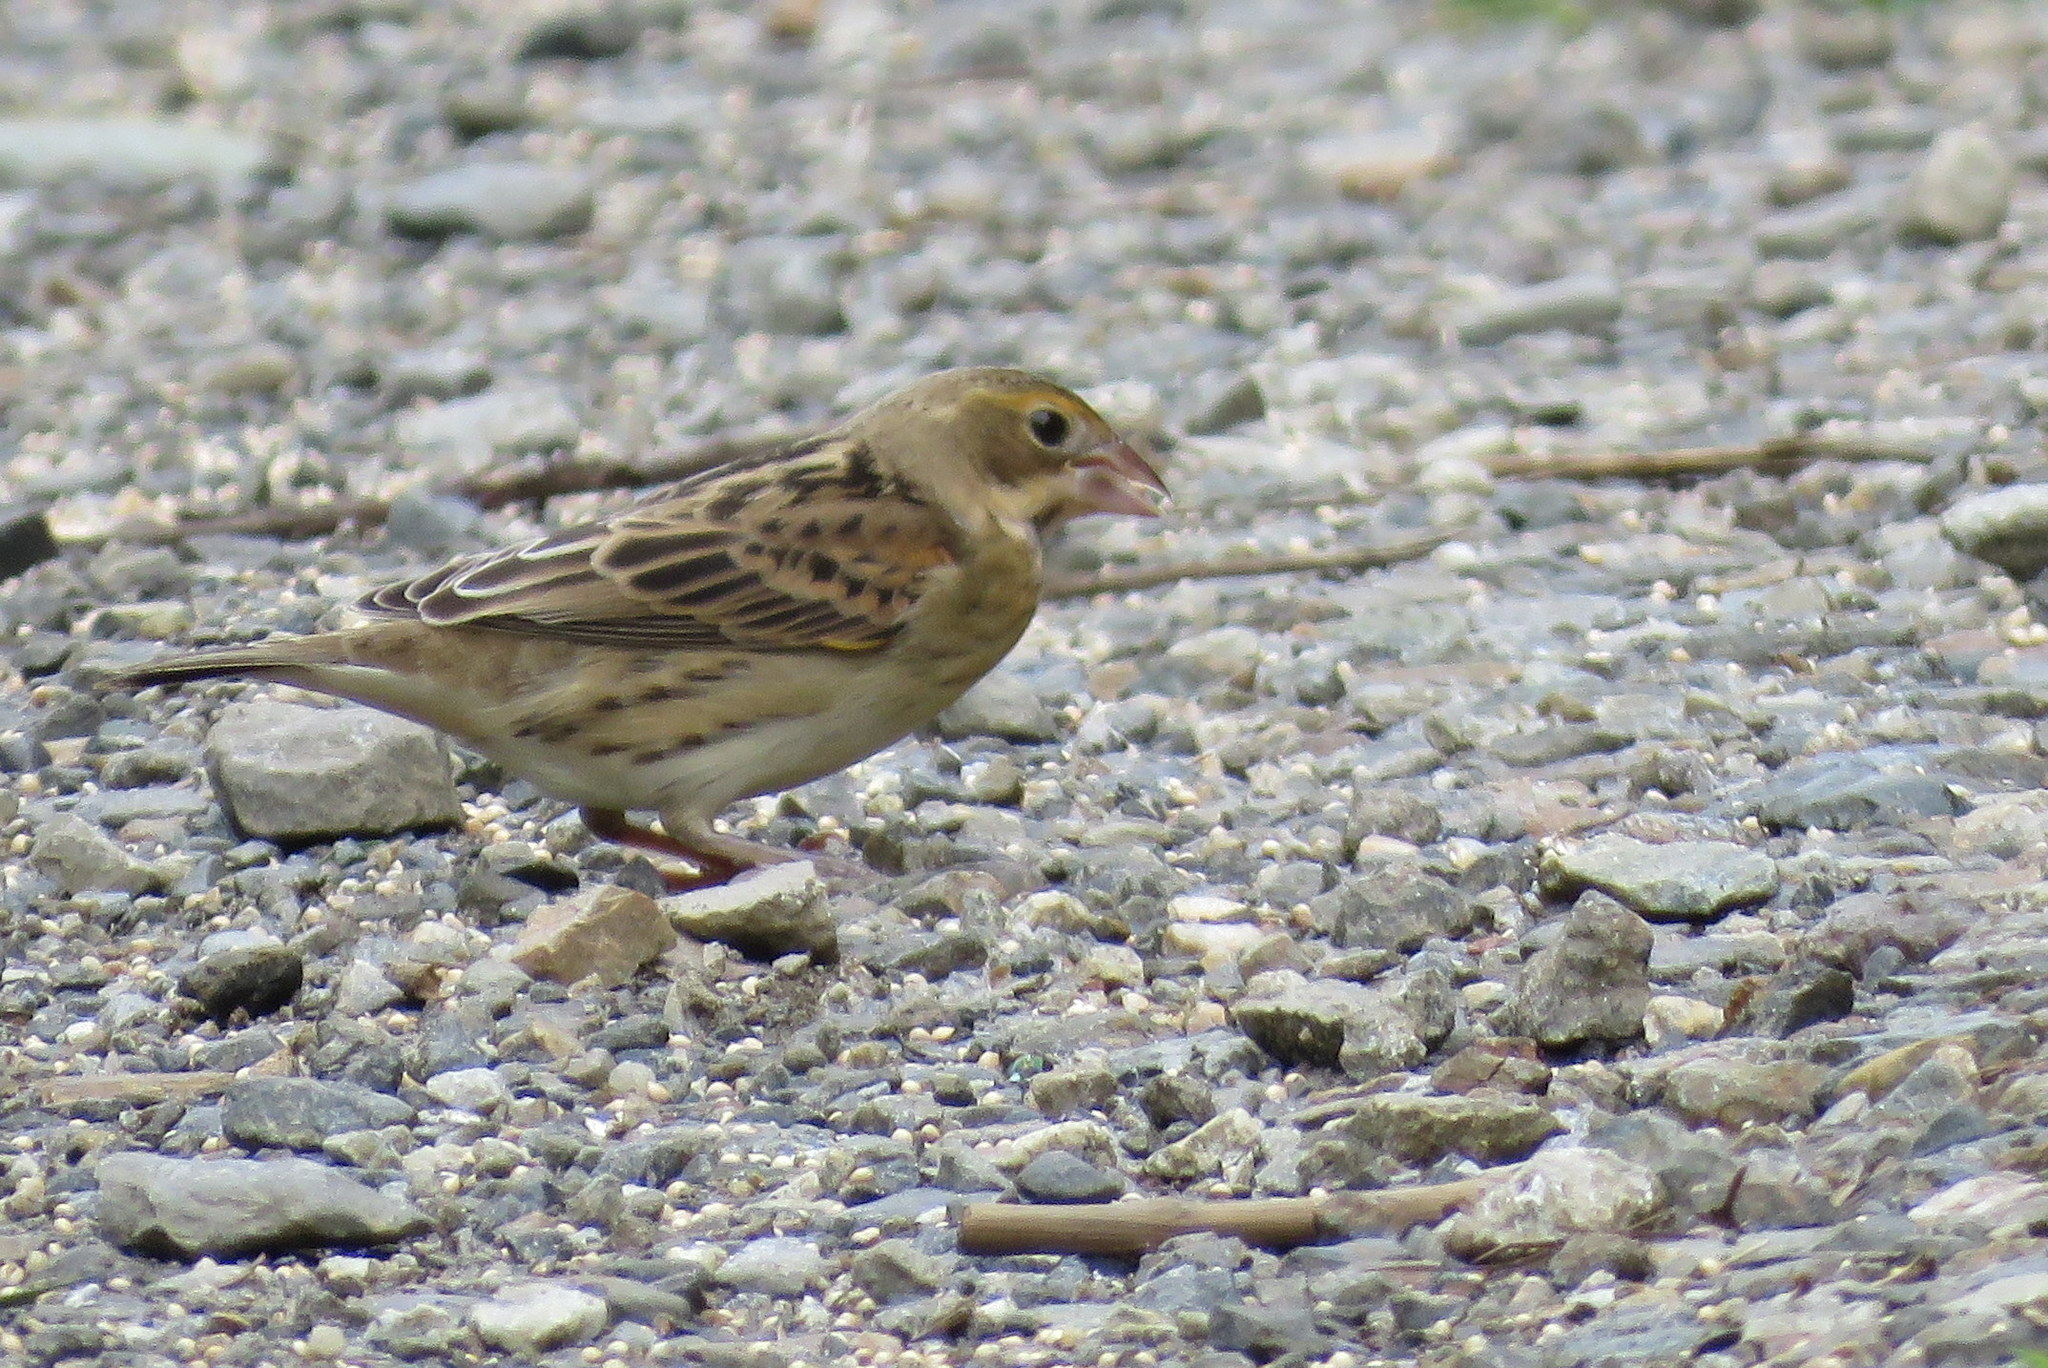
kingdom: Animalia
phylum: Chordata
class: Aves
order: Passeriformes
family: Cardinalidae
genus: Spiza
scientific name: Spiza americana
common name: Dickcissel
